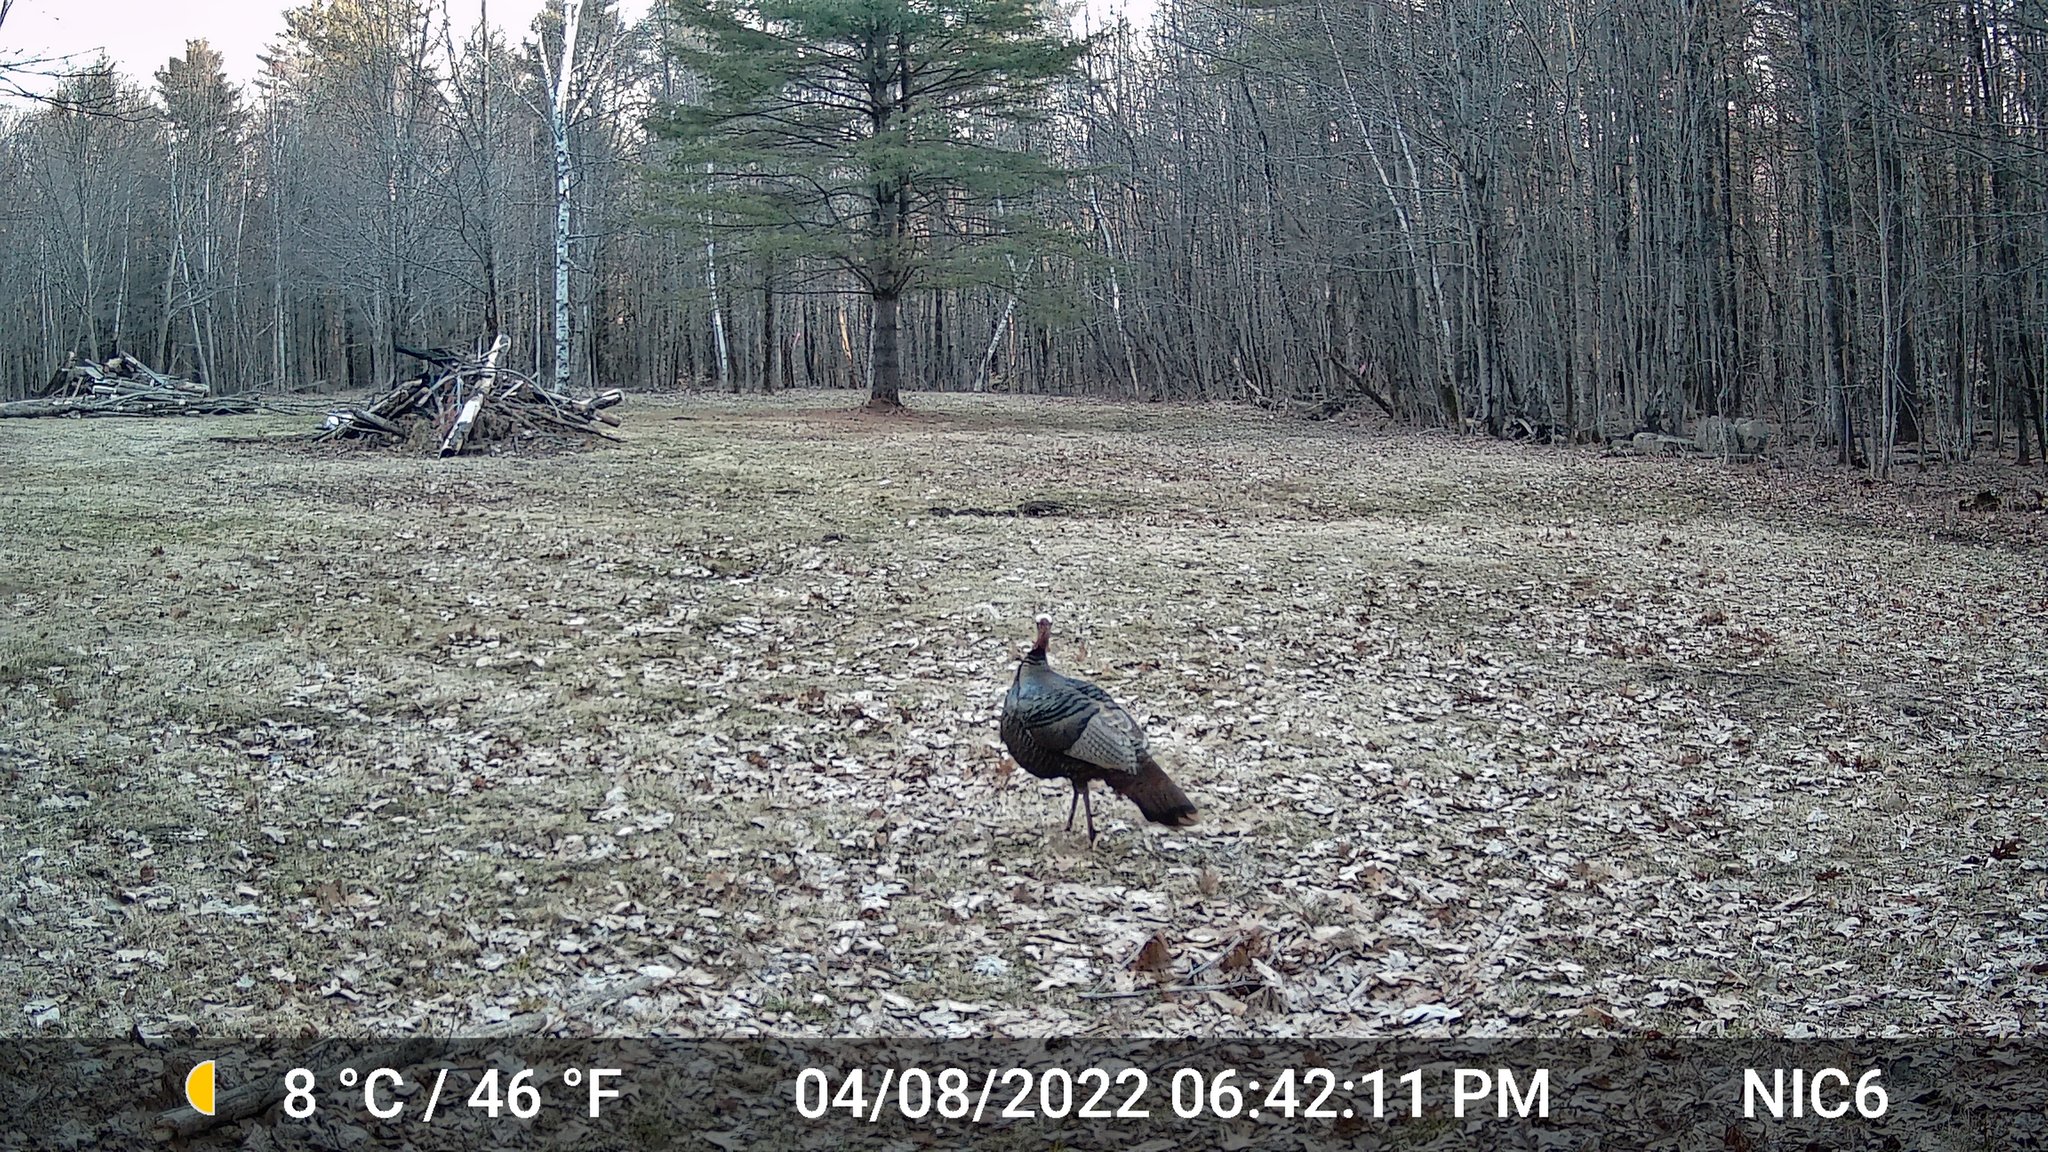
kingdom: Animalia
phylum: Chordata
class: Aves
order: Galliformes
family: Phasianidae
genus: Meleagris
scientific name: Meleagris gallopavo
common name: Wild turkey
